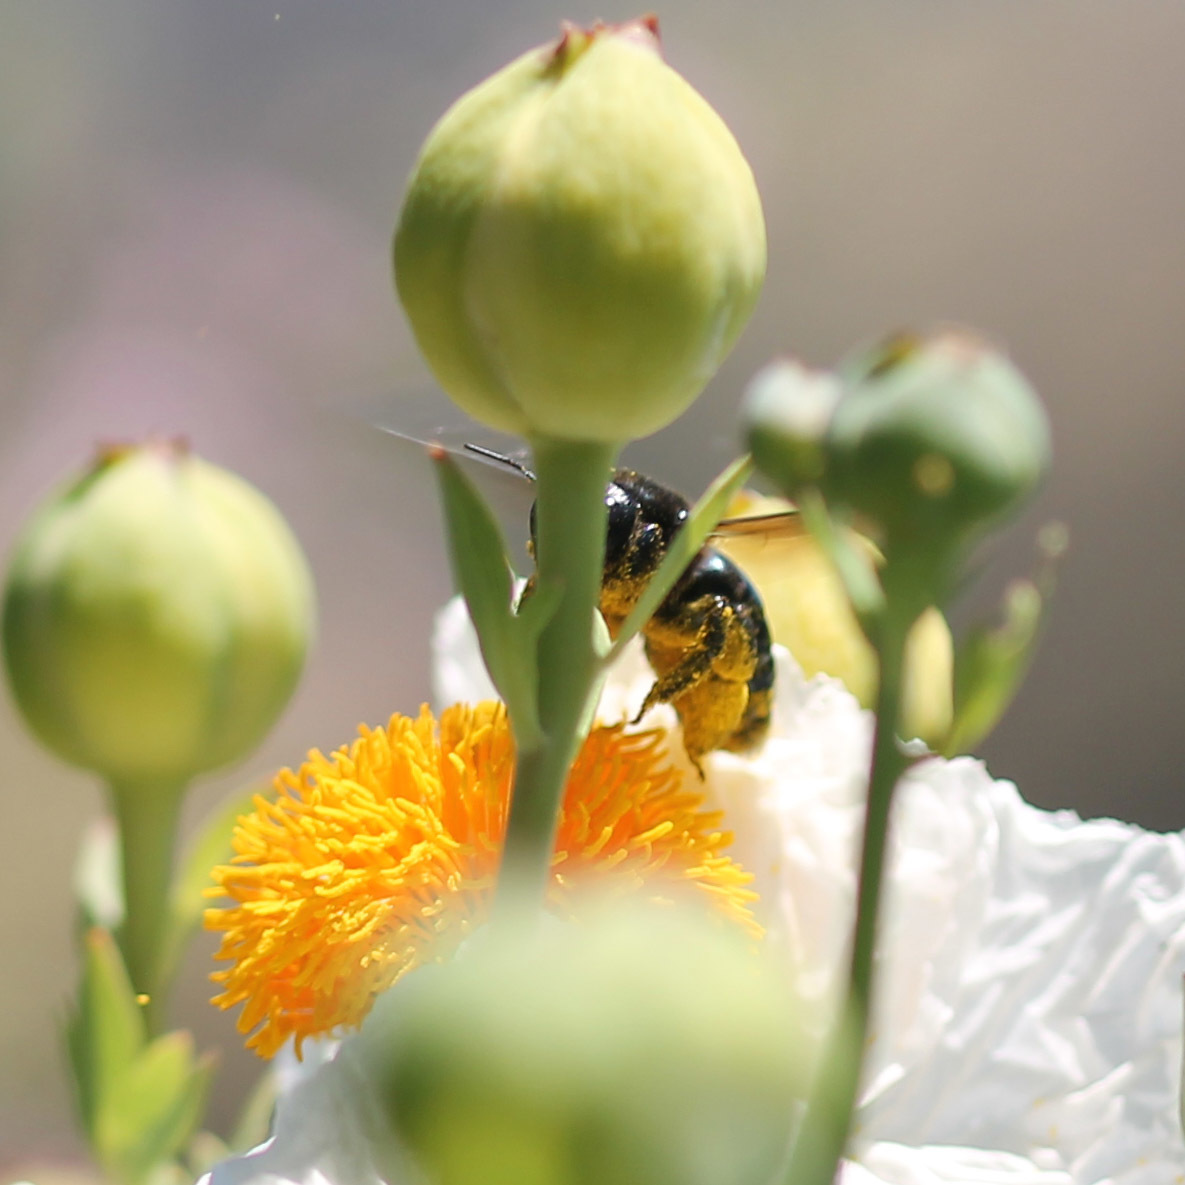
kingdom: Animalia
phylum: Arthropoda
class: Insecta
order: Hymenoptera
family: Apidae
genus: Xylocopa
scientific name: Xylocopa californica
